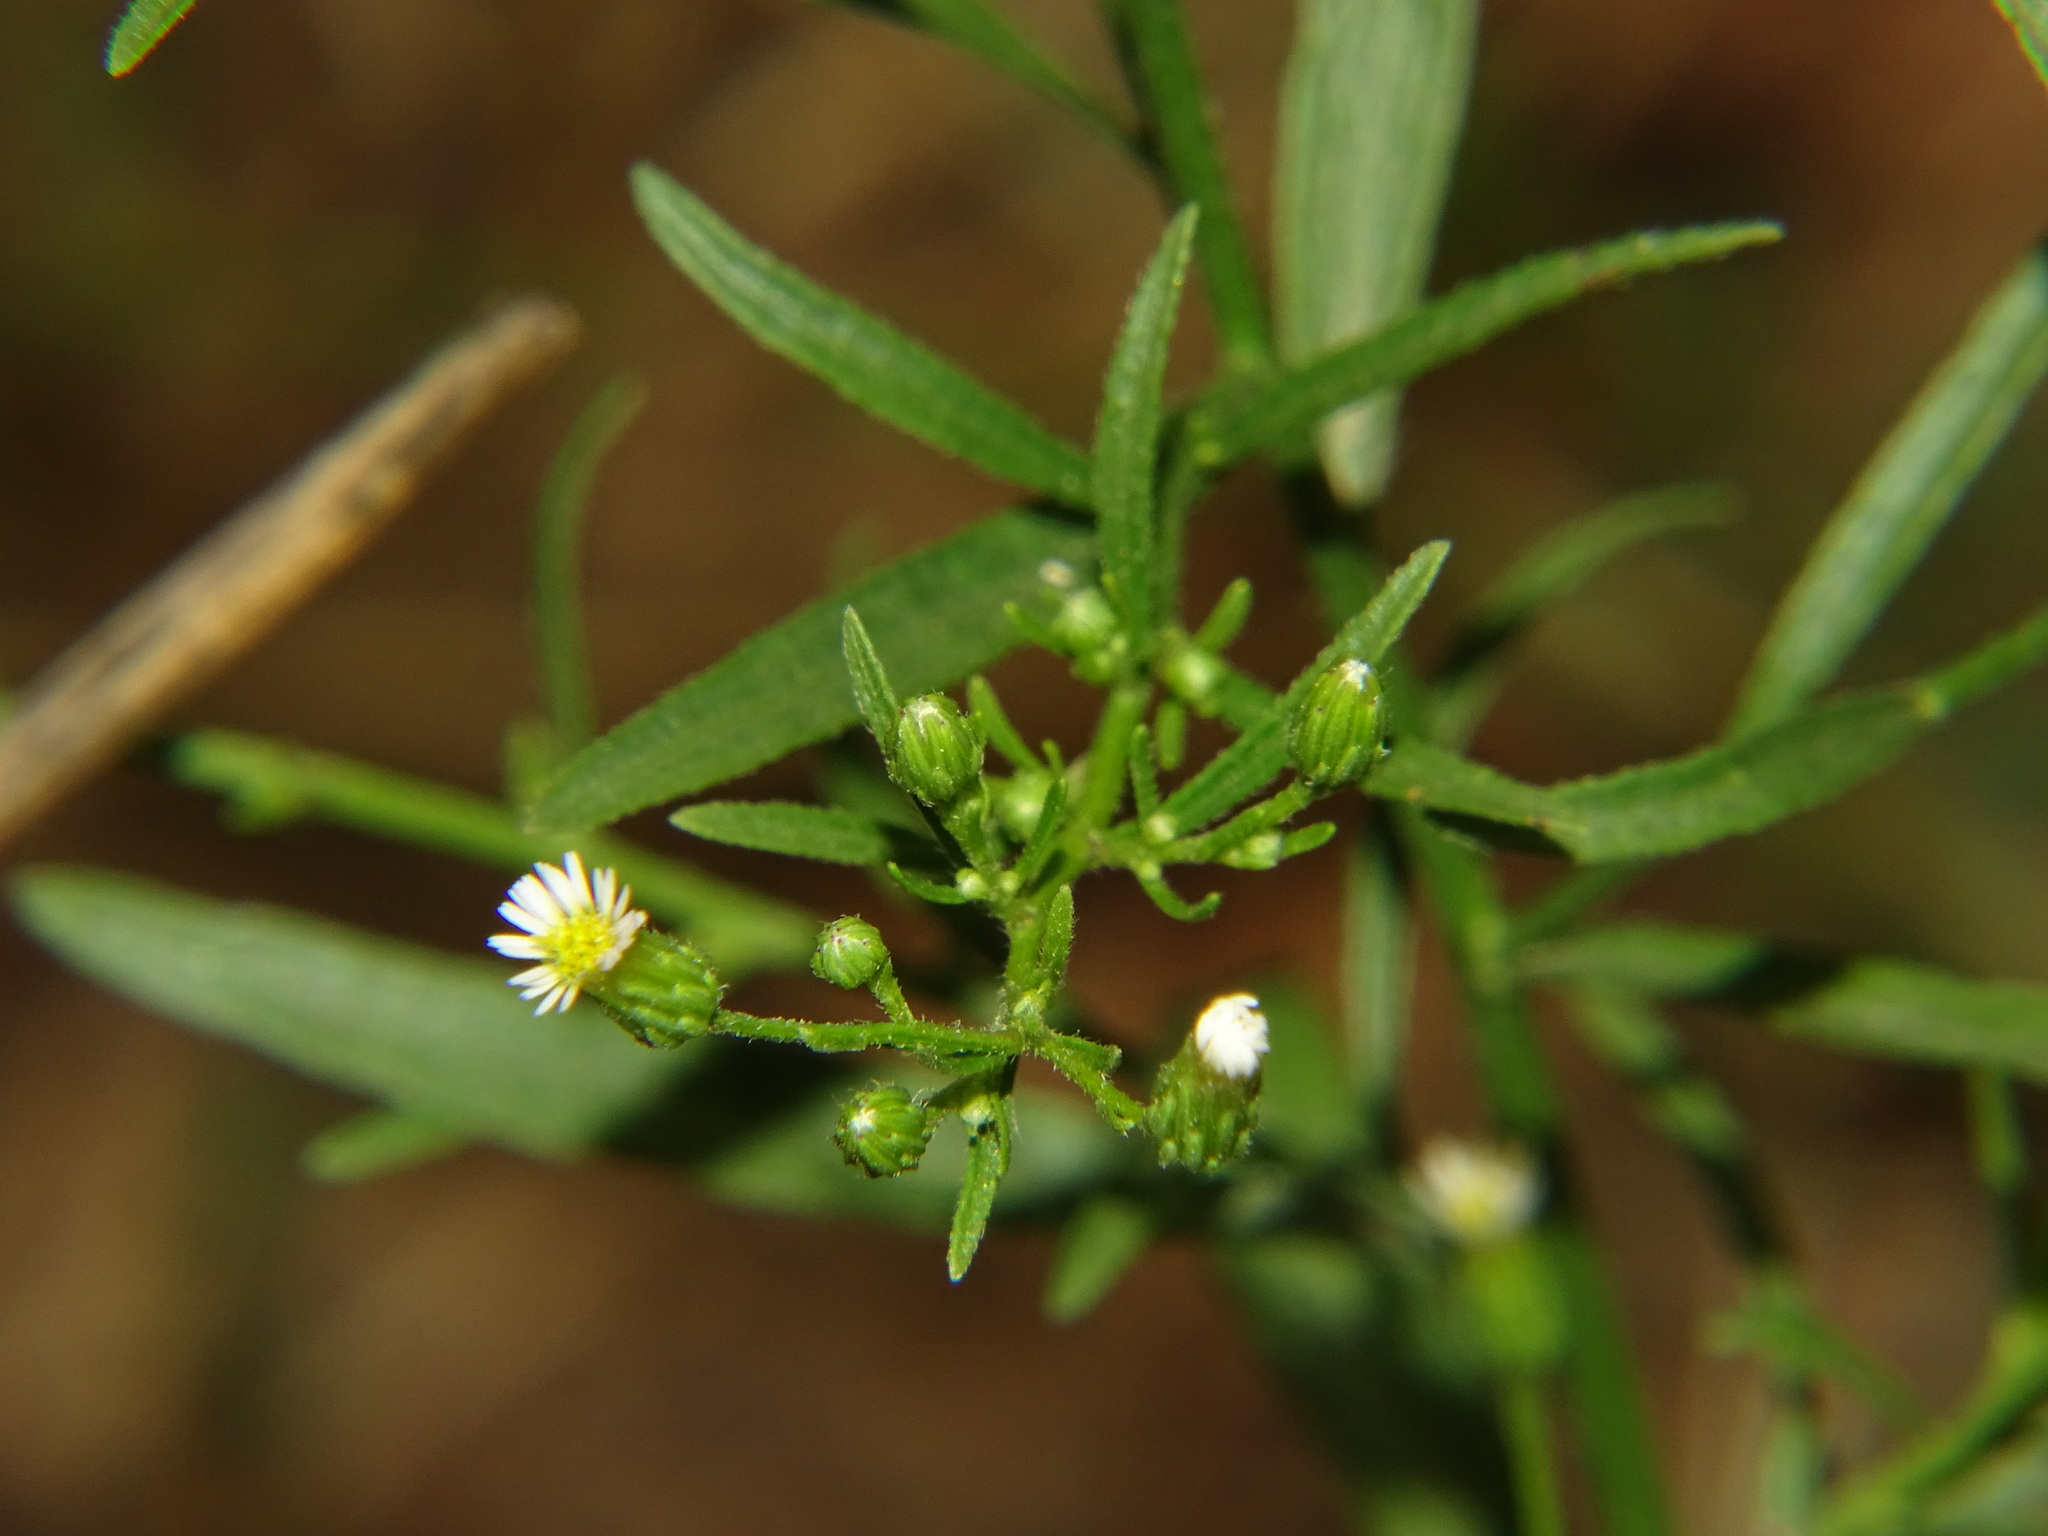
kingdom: Plantae
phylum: Tracheophyta
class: Magnoliopsida
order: Asterales
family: Asteraceae
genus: Erigeron
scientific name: Erigeron canadensis
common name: Canadian fleabane
